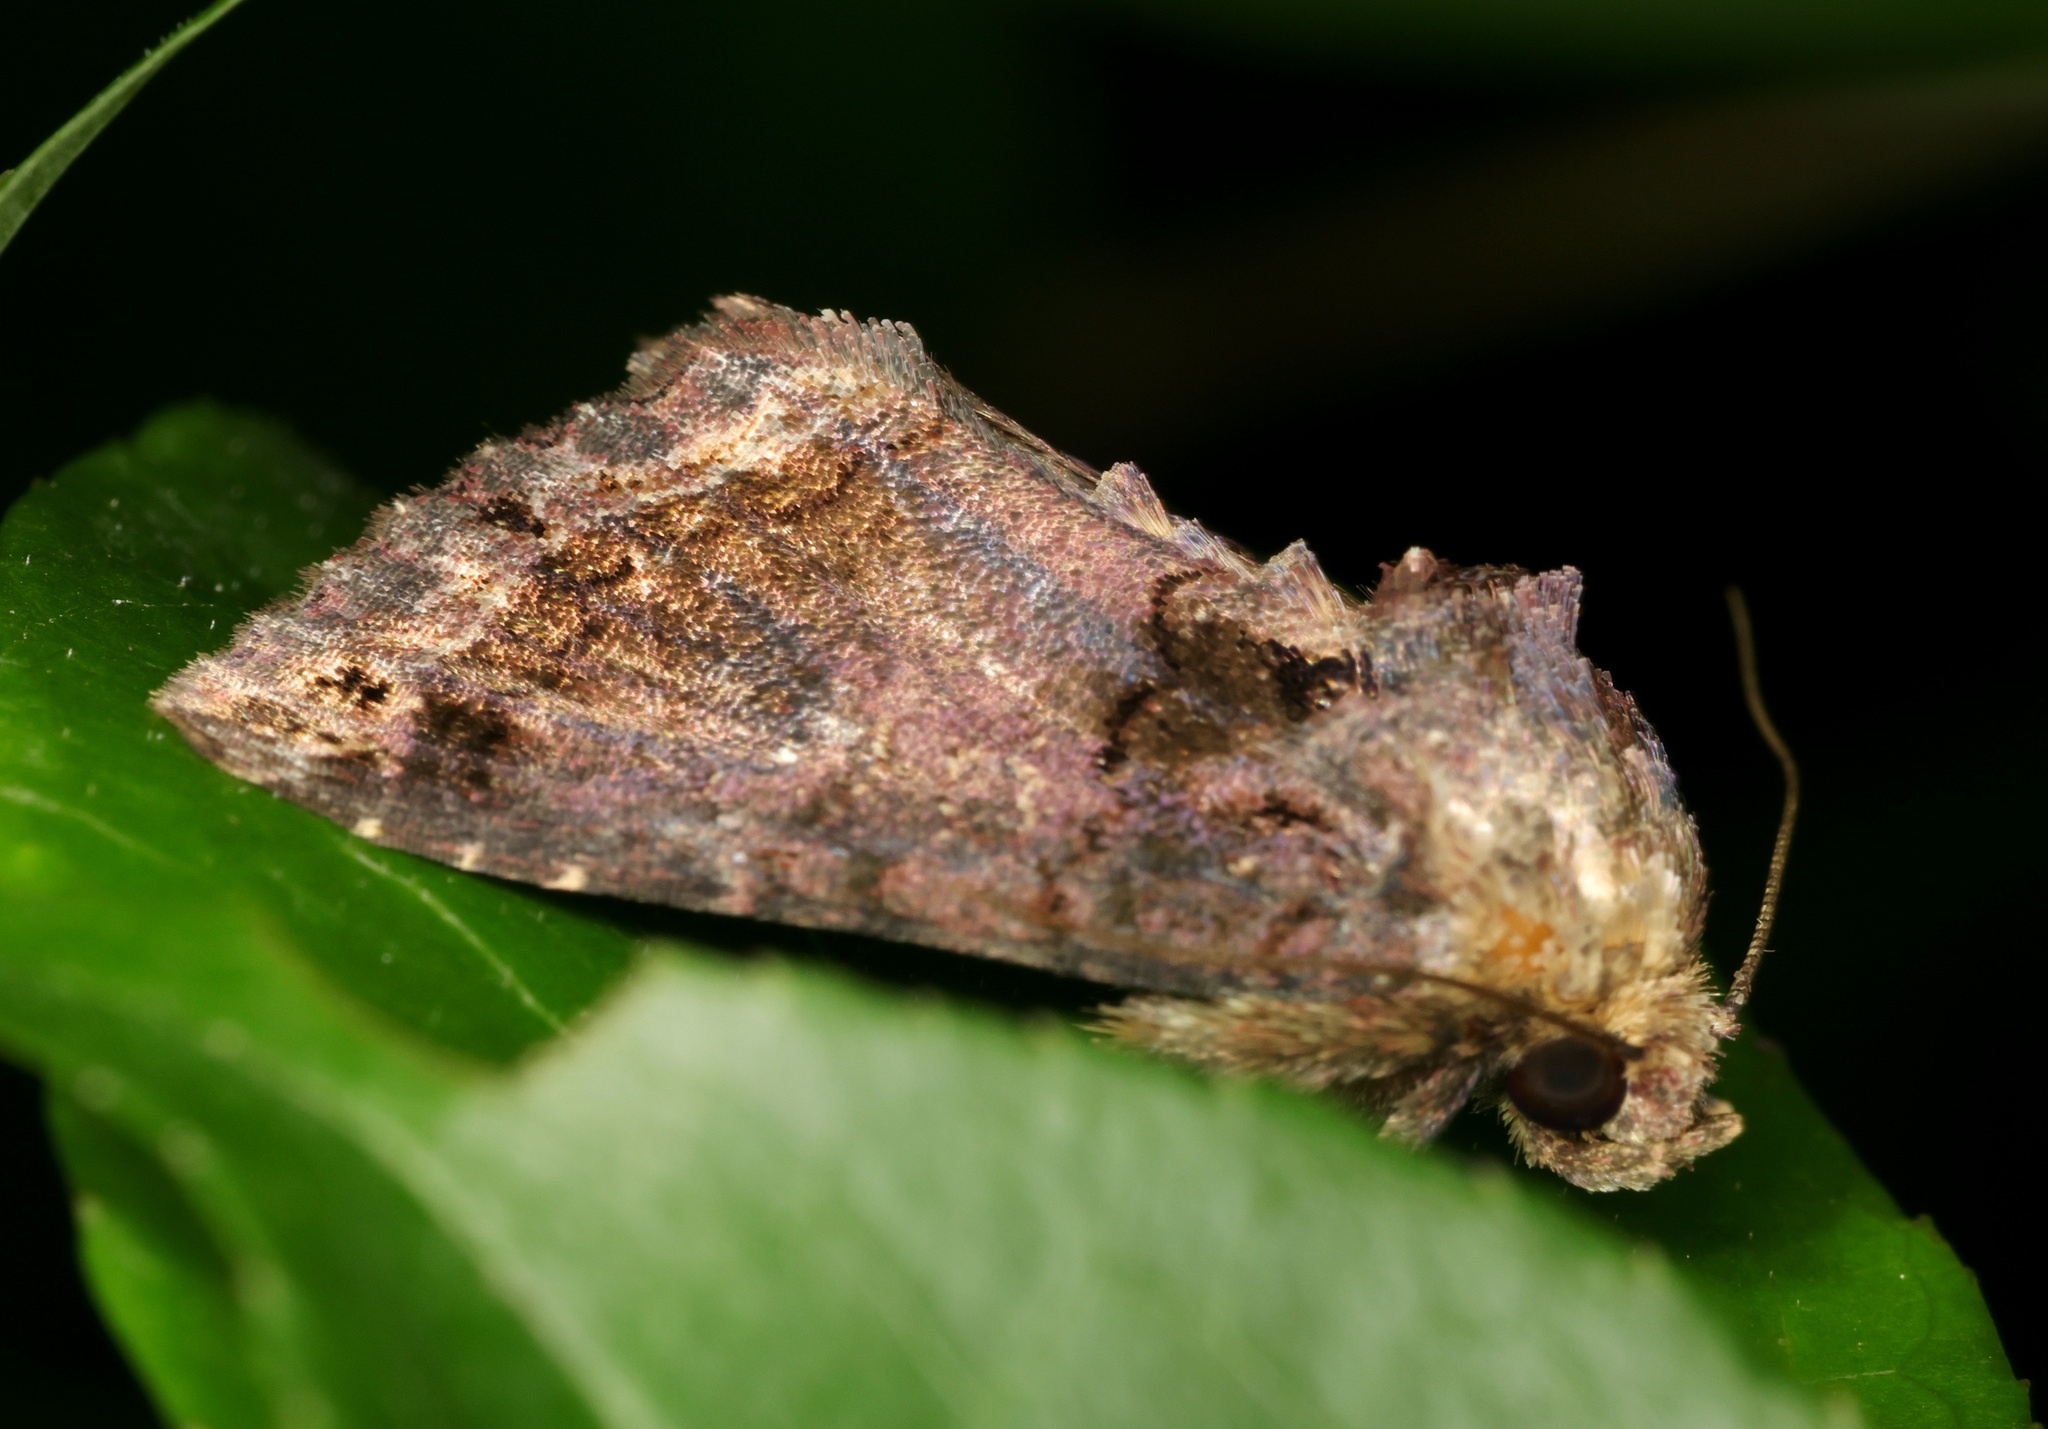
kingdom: Animalia
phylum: Arthropoda
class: Insecta
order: Lepidoptera
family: Noctuidae
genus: Callopistria
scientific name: Callopistria apicalis
